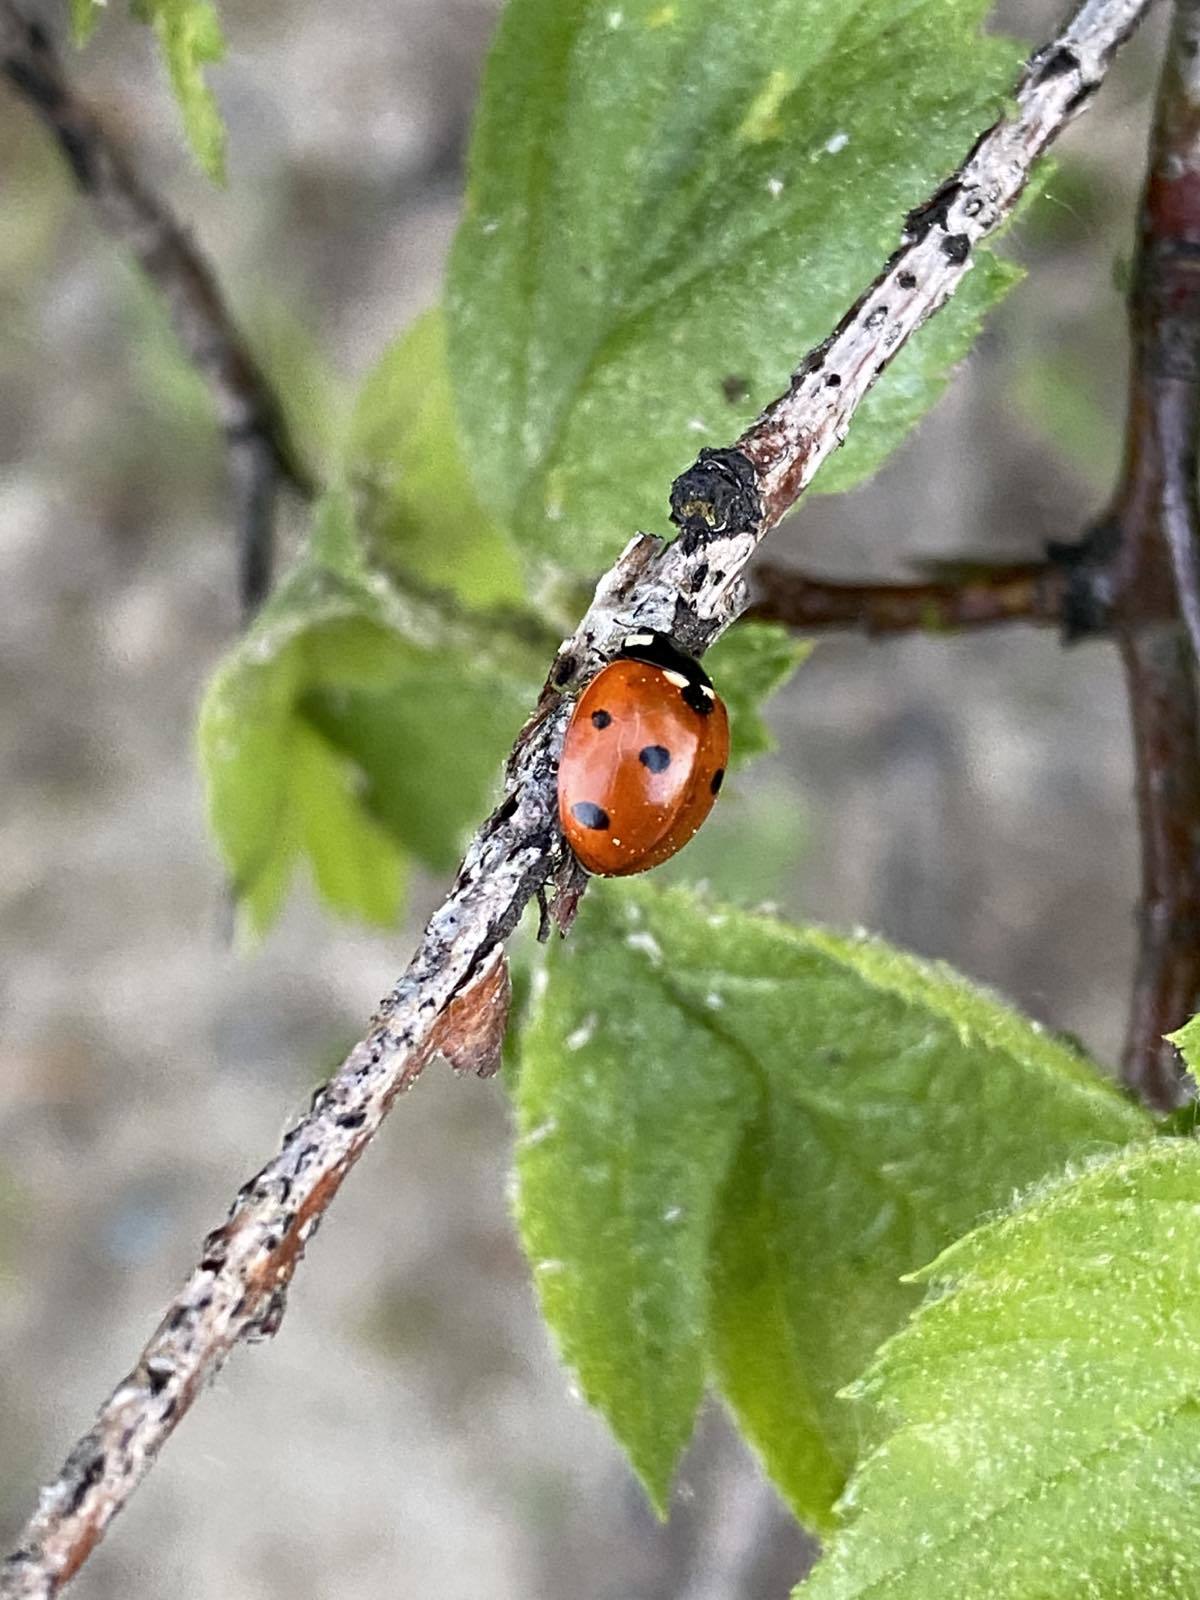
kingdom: Animalia
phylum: Arthropoda
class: Insecta
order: Coleoptera
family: Coccinellidae
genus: Coccinella
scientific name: Coccinella septempunctata
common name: Sevenspotted lady beetle
